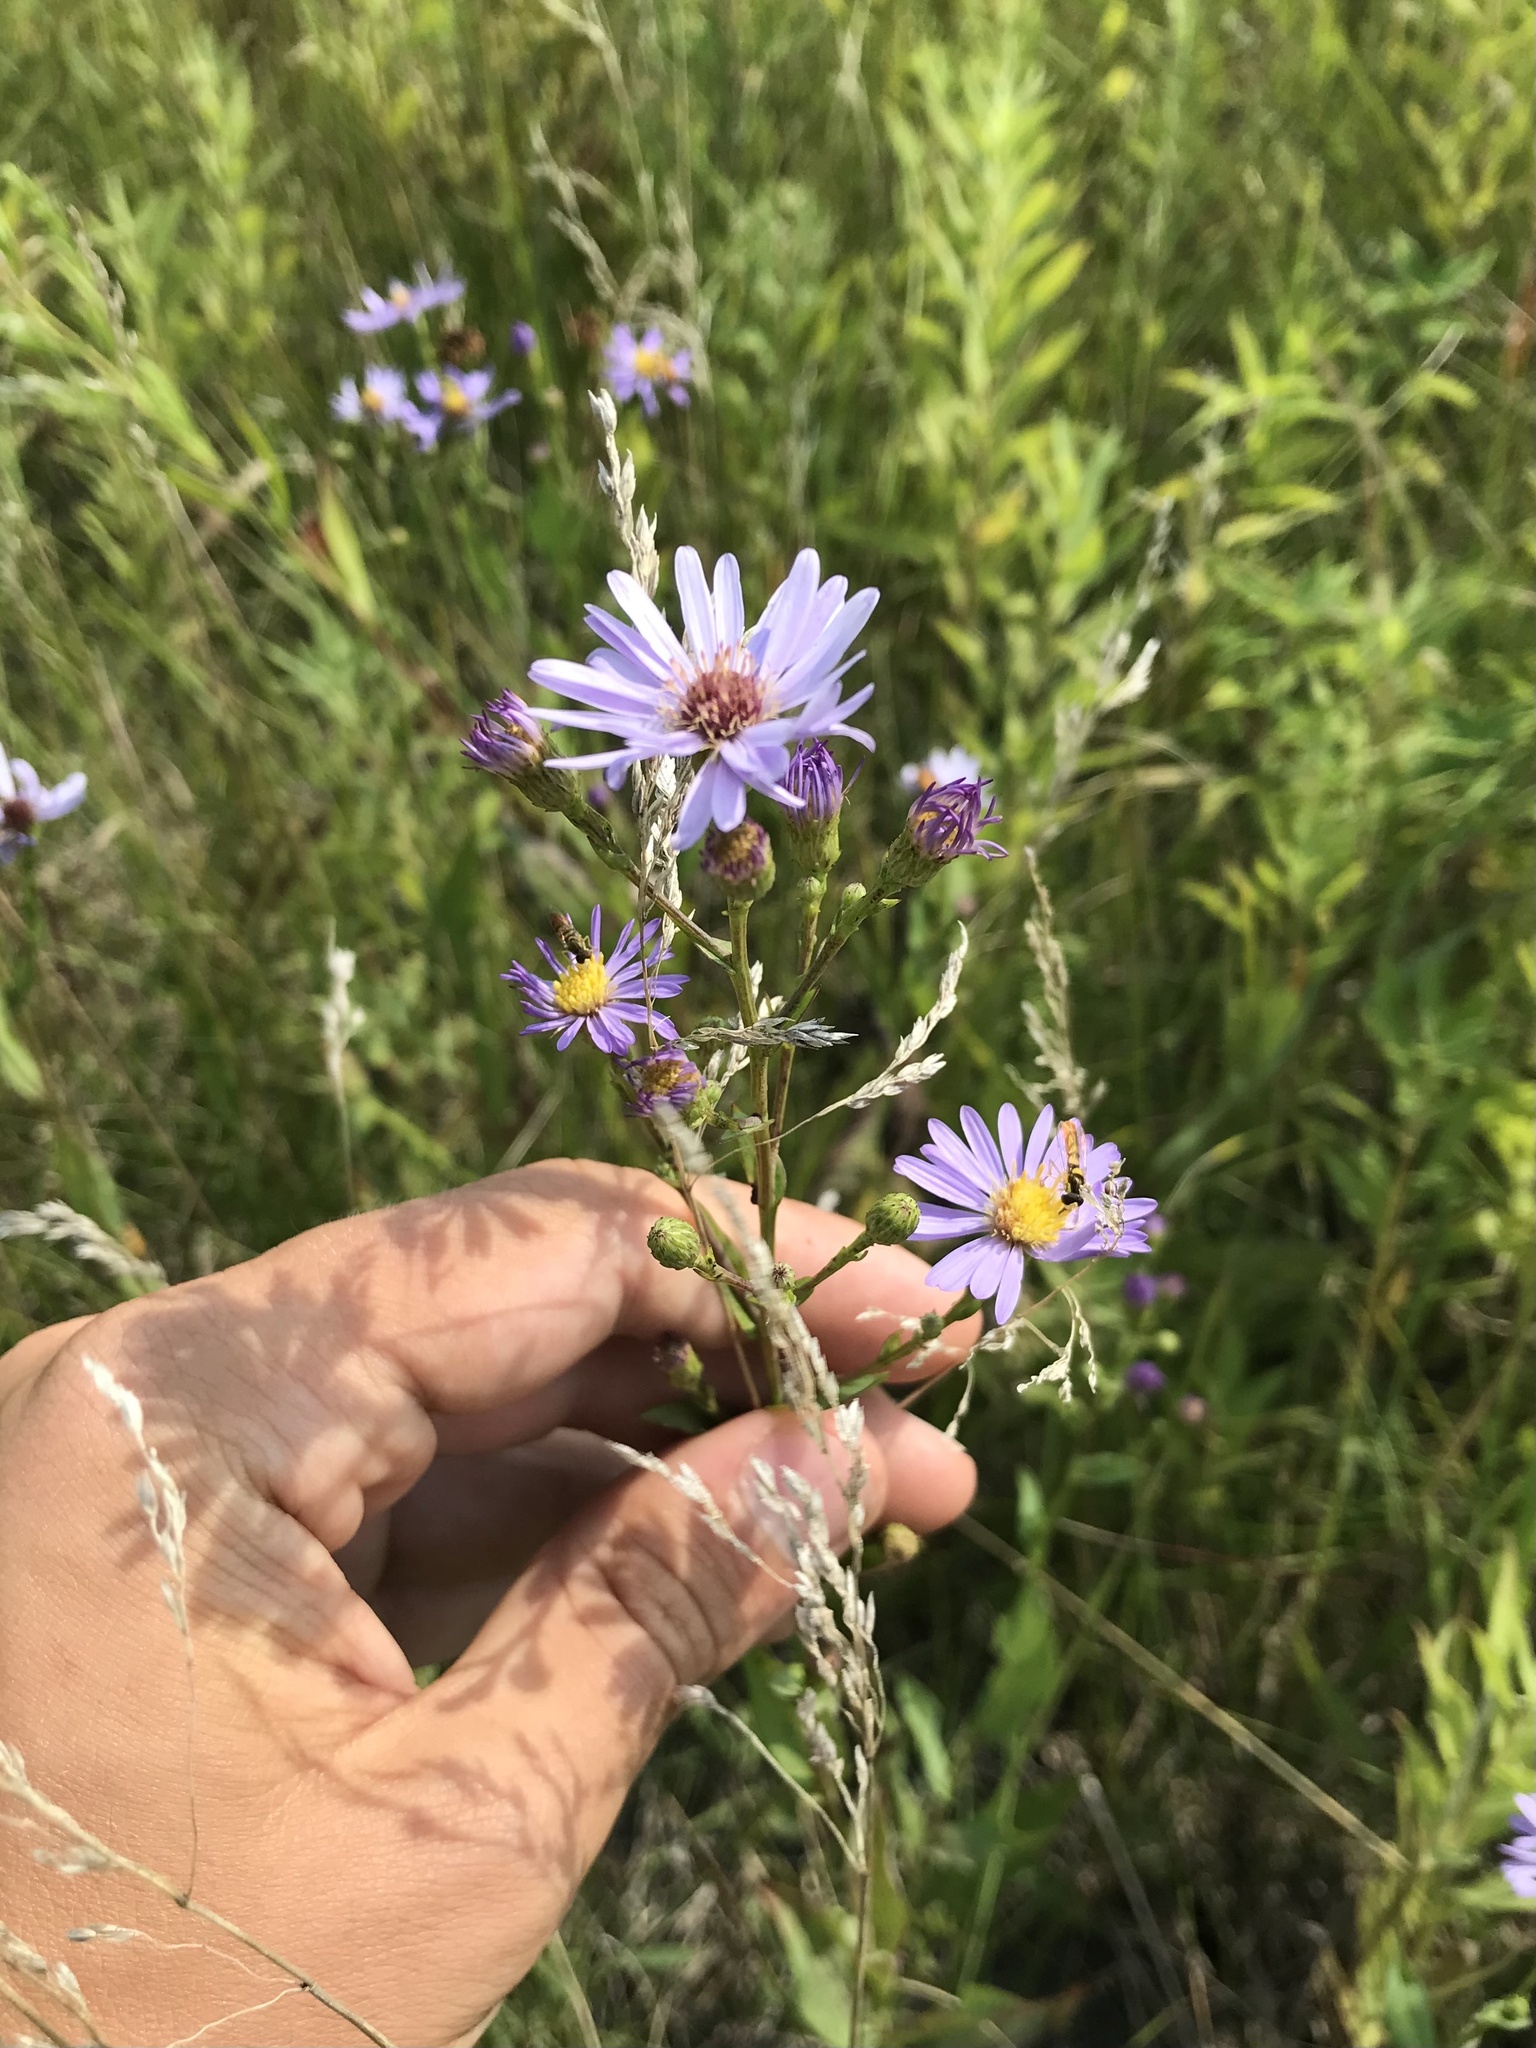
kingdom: Plantae
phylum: Tracheophyta
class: Magnoliopsida
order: Asterales
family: Asteraceae
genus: Symphyotrichum
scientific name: Symphyotrichum laeve
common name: Glaucous aster
